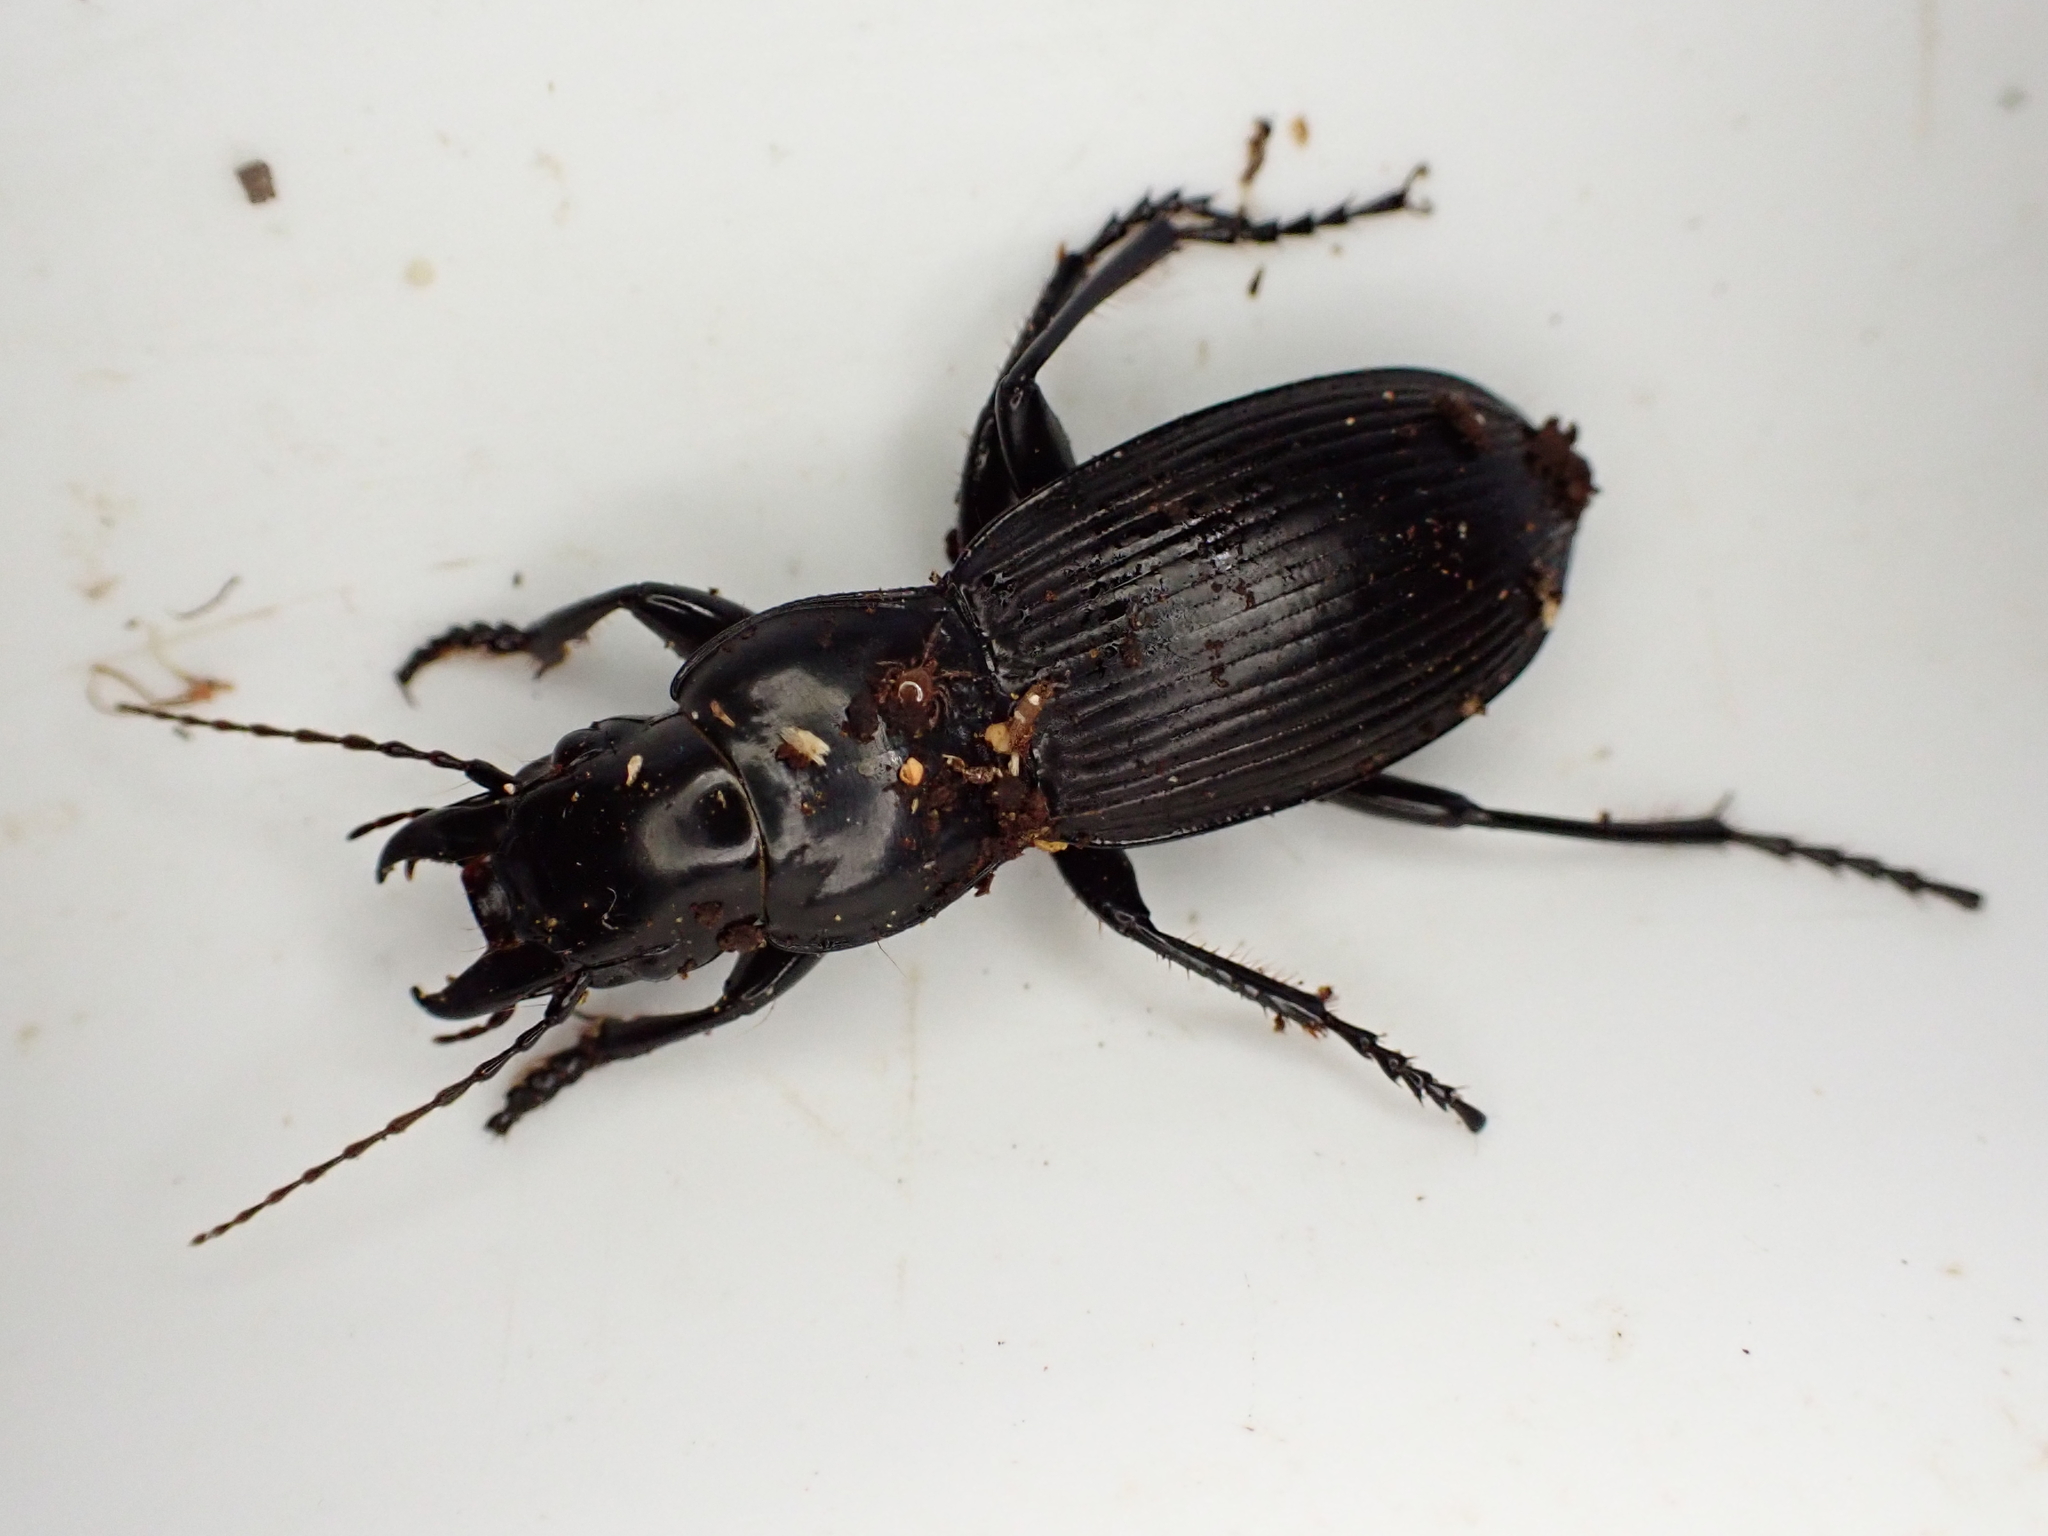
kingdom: Animalia
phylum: Arthropoda
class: Insecta
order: Coleoptera
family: Carabidae
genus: Plocamostethus
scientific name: Plocamostethus planiusculus
